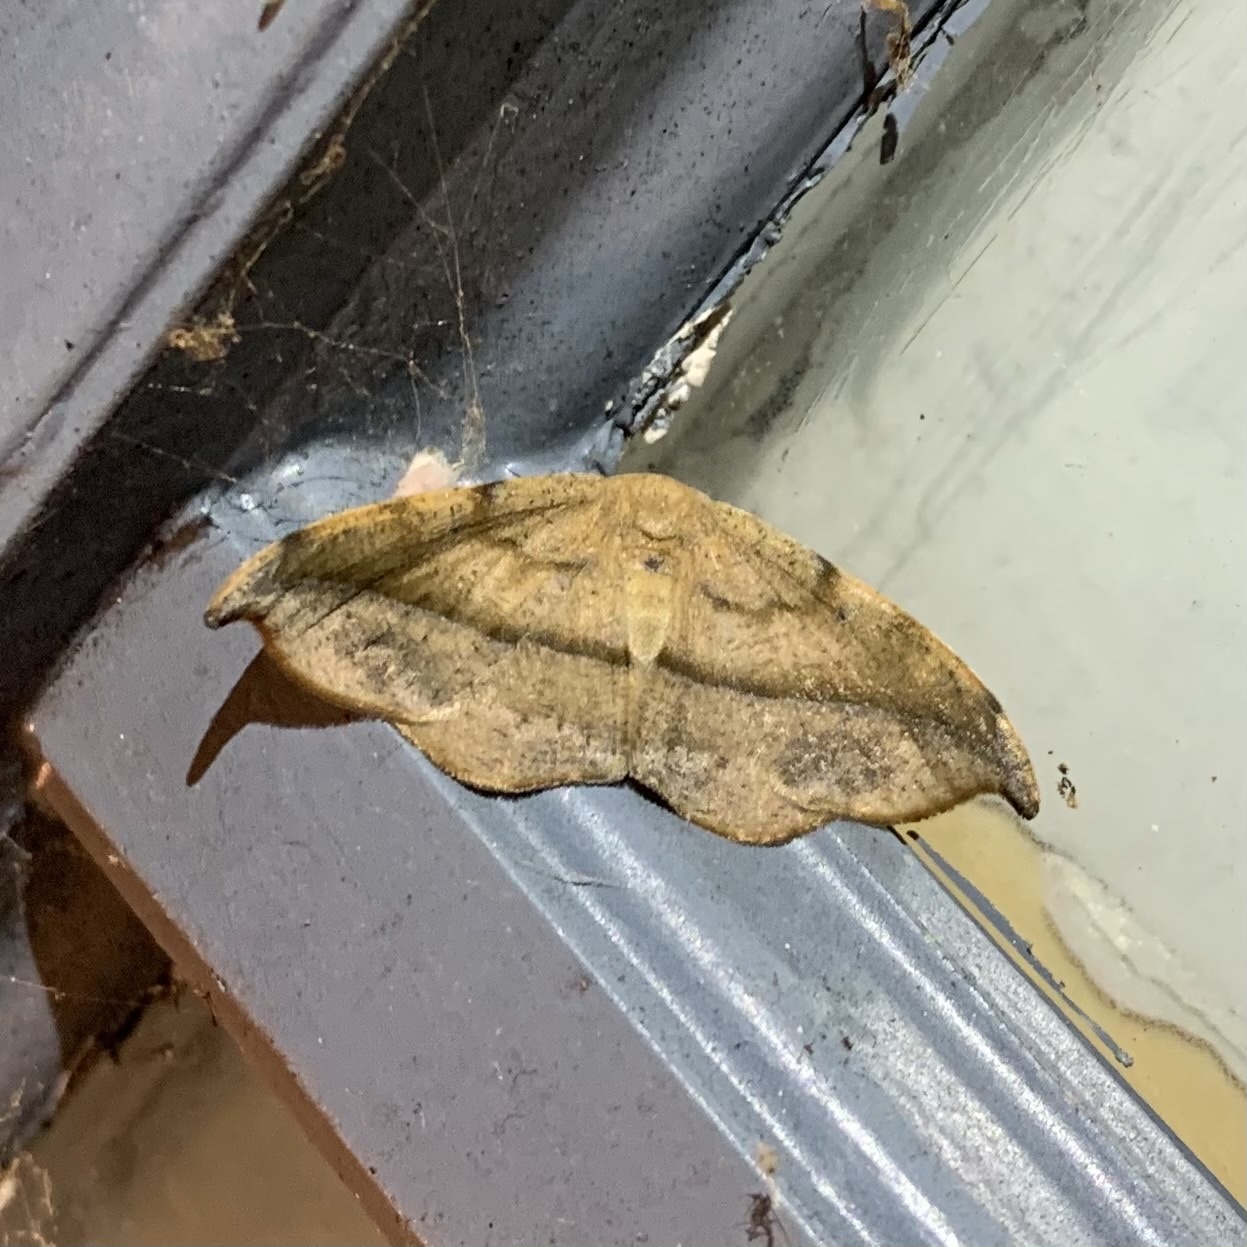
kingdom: Animalia
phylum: Arthropoda
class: Insecta
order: Lepidoptera
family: Geometridae
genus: Patalene
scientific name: Patalene olyzonaria
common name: Juniper geometer moth
